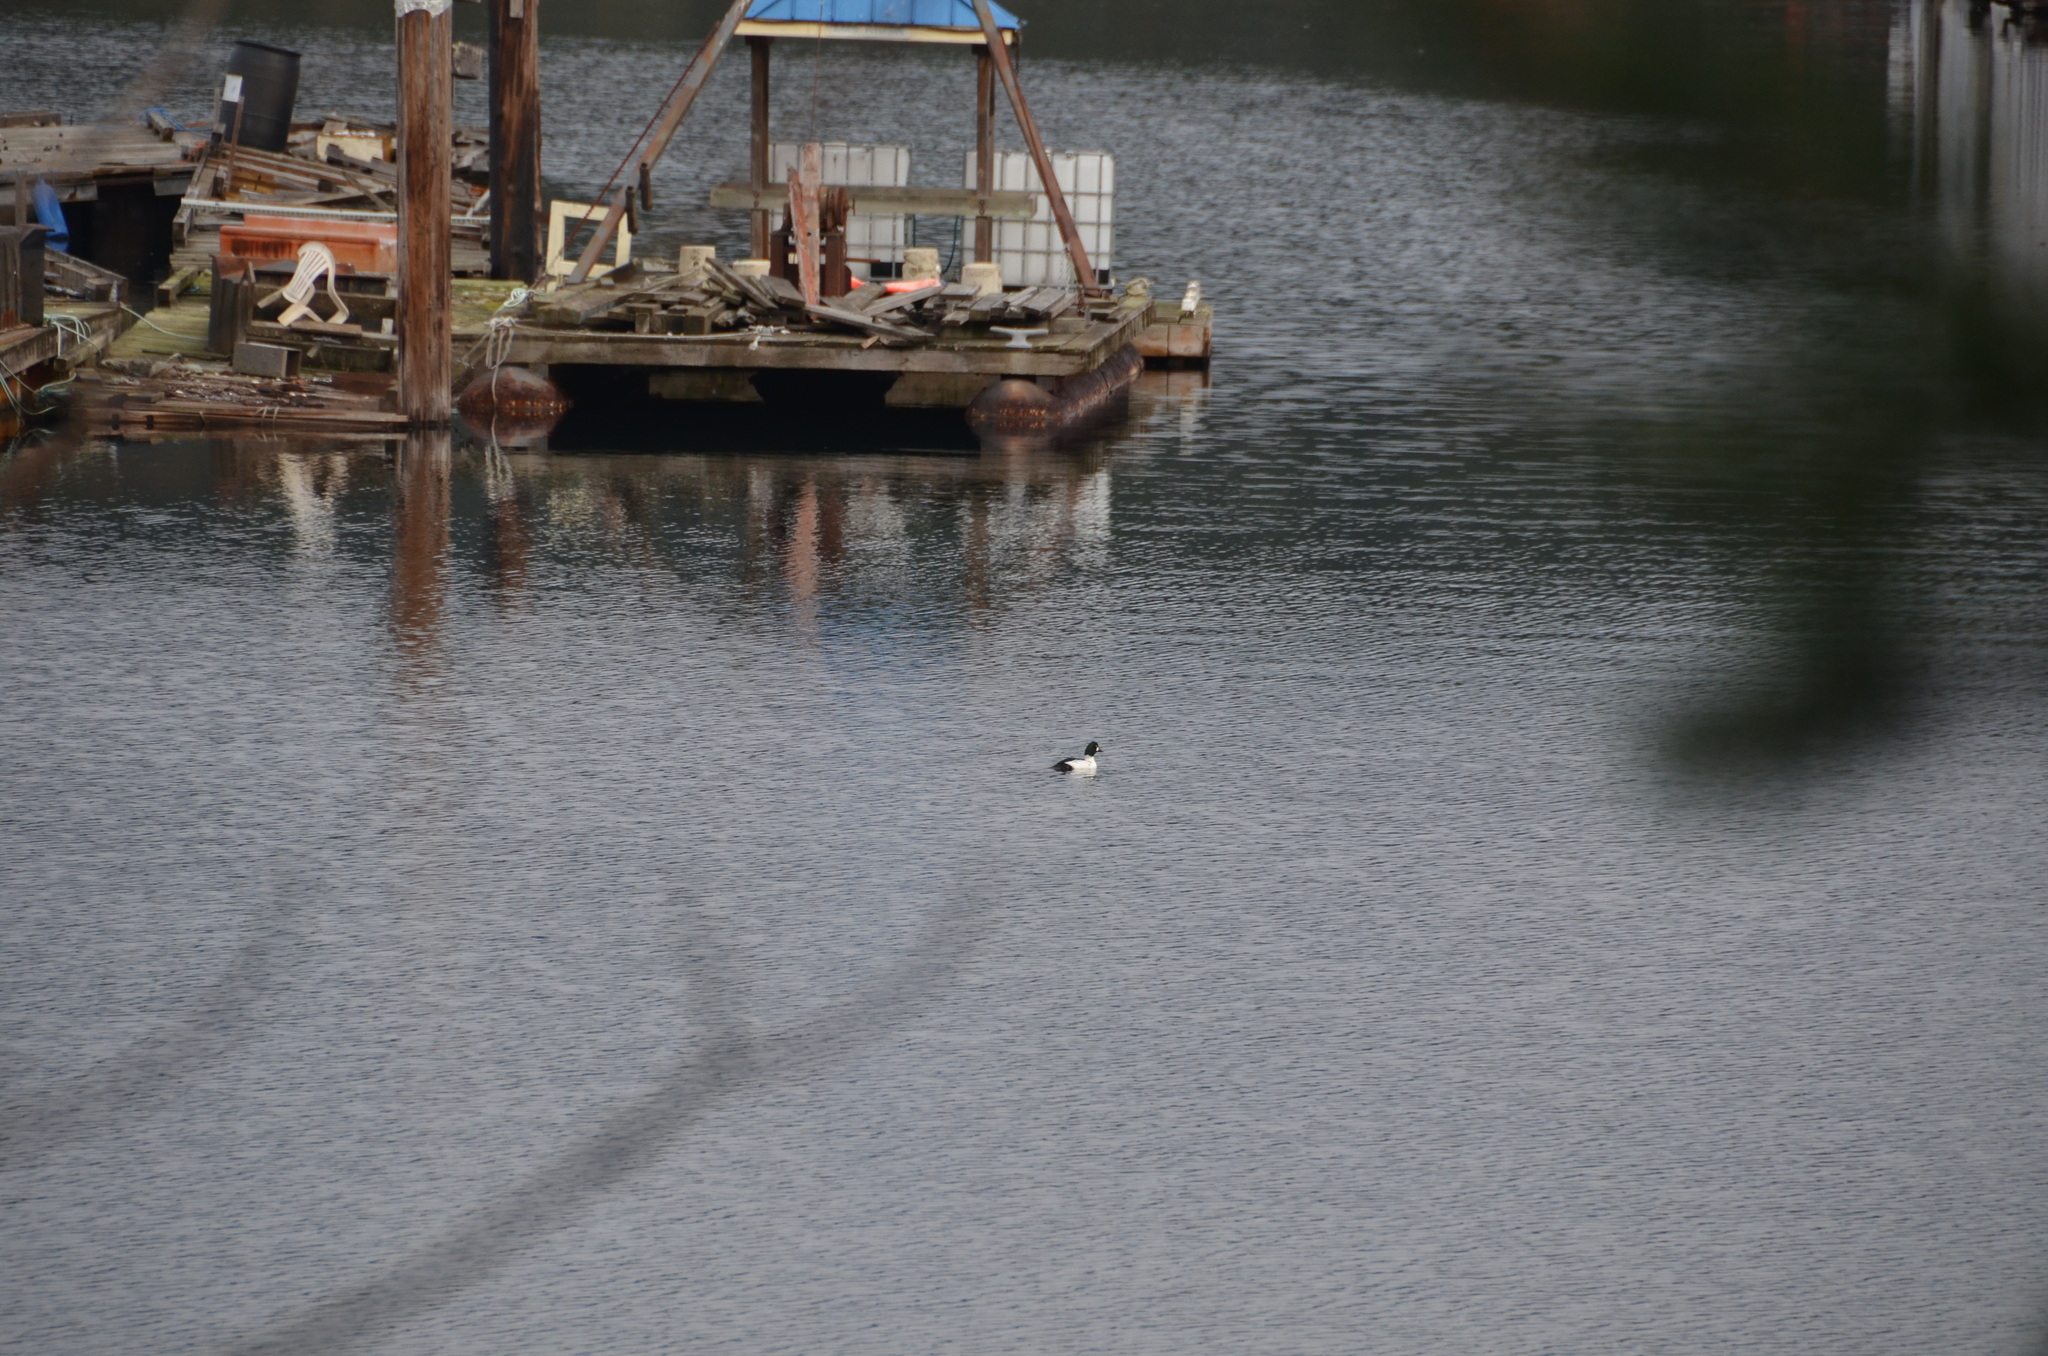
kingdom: Animalia
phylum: Chordata
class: Aves
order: Anseriformes
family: Anatidae
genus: Bucephala
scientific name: Bucephala clangula
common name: Common goldeneye
